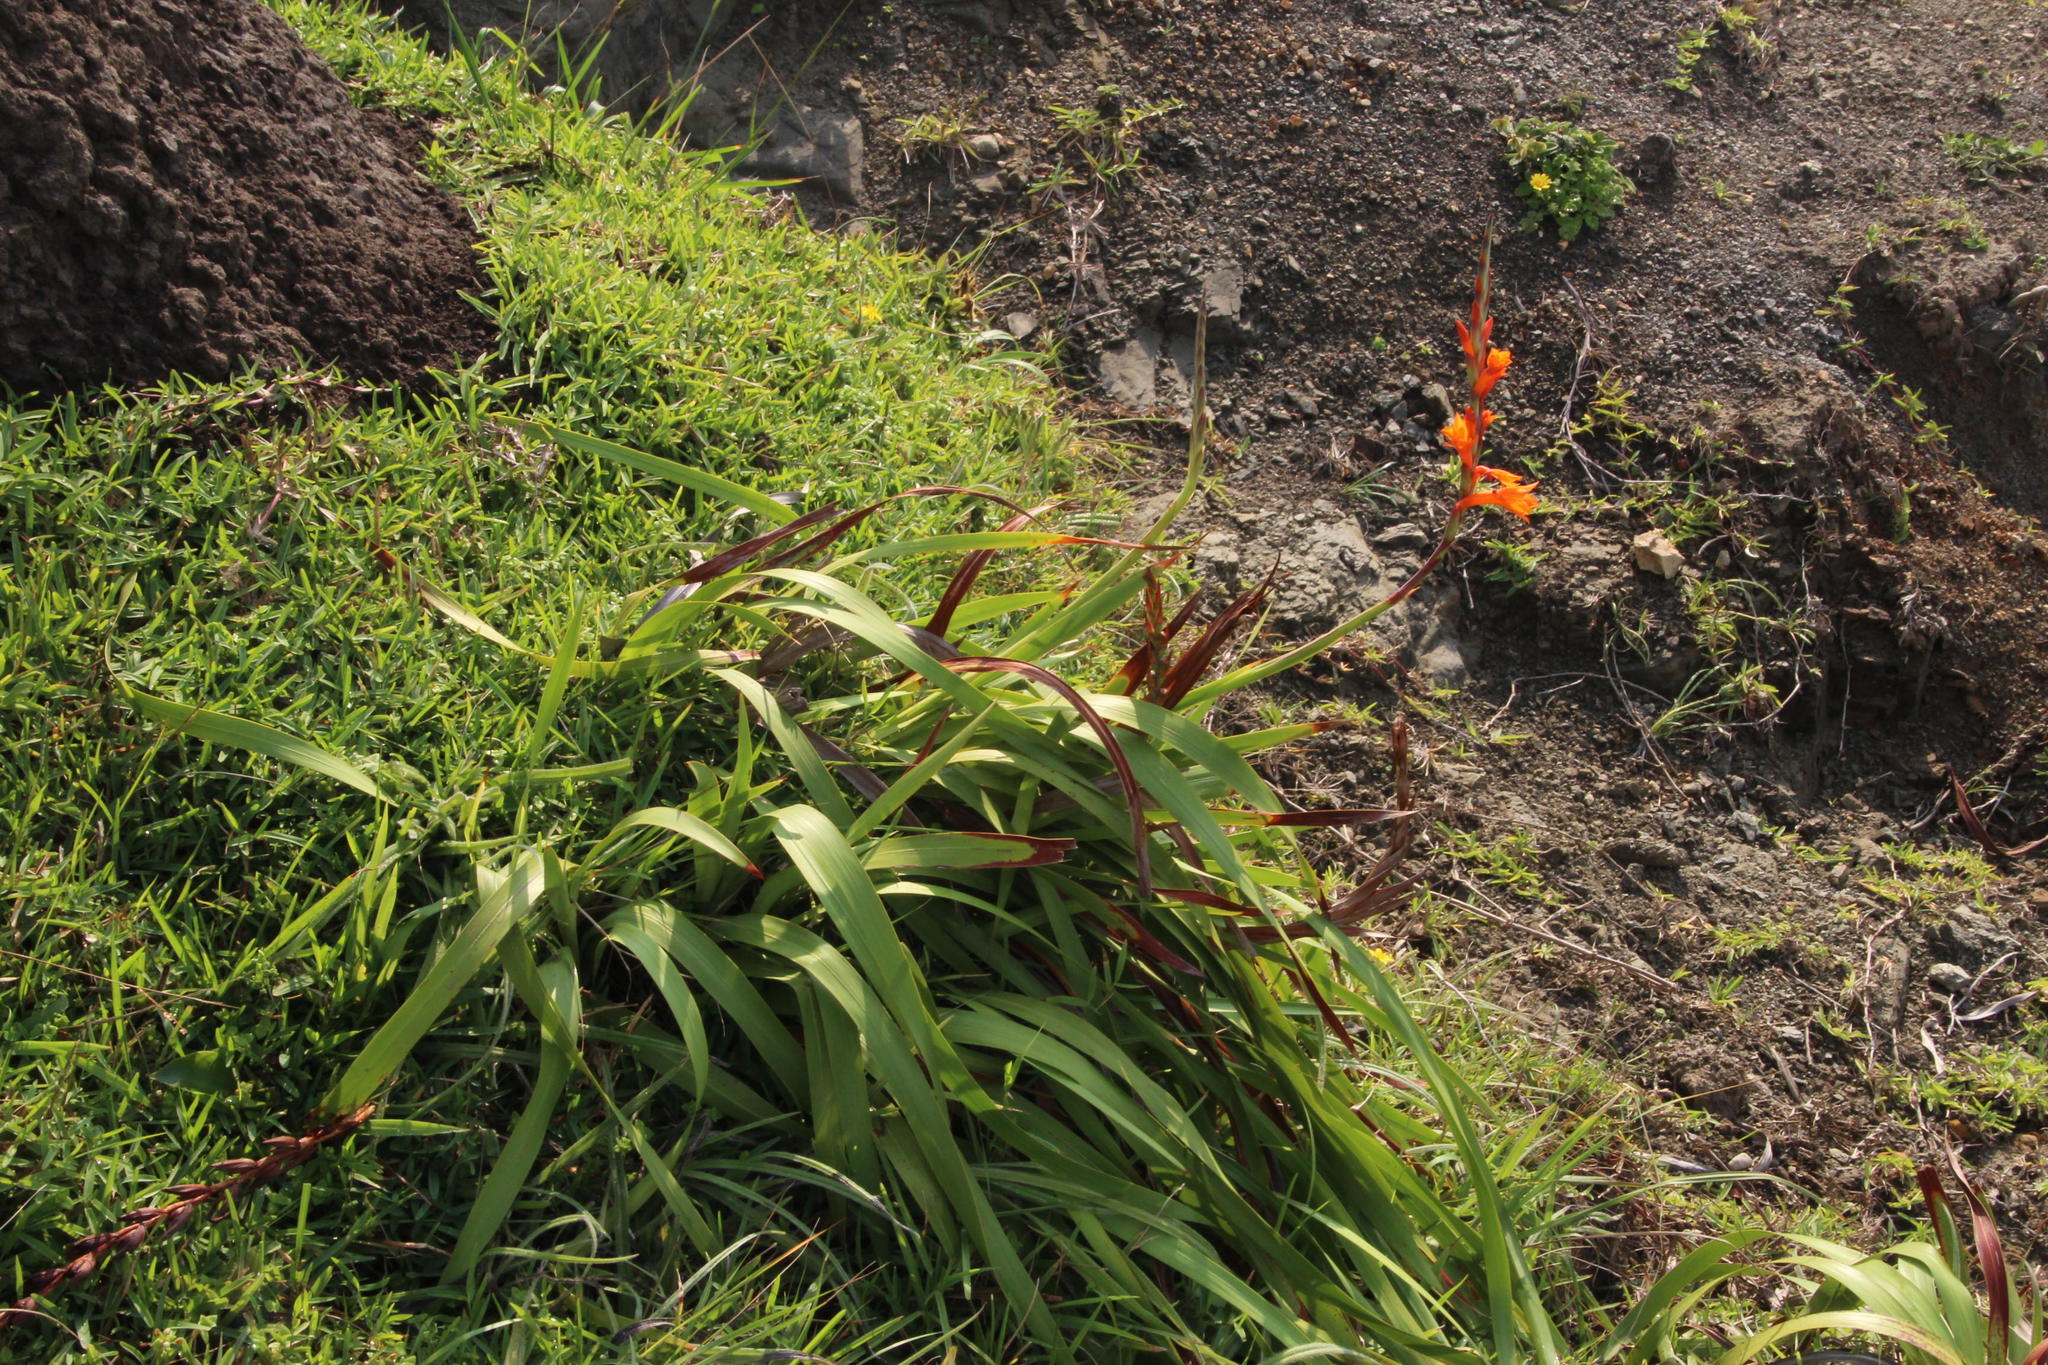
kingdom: Plantae
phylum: Tracheophyta
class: Liliopsida
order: Asparagales
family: Iridaceae
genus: Watsonia
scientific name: Watsonia pillansii
